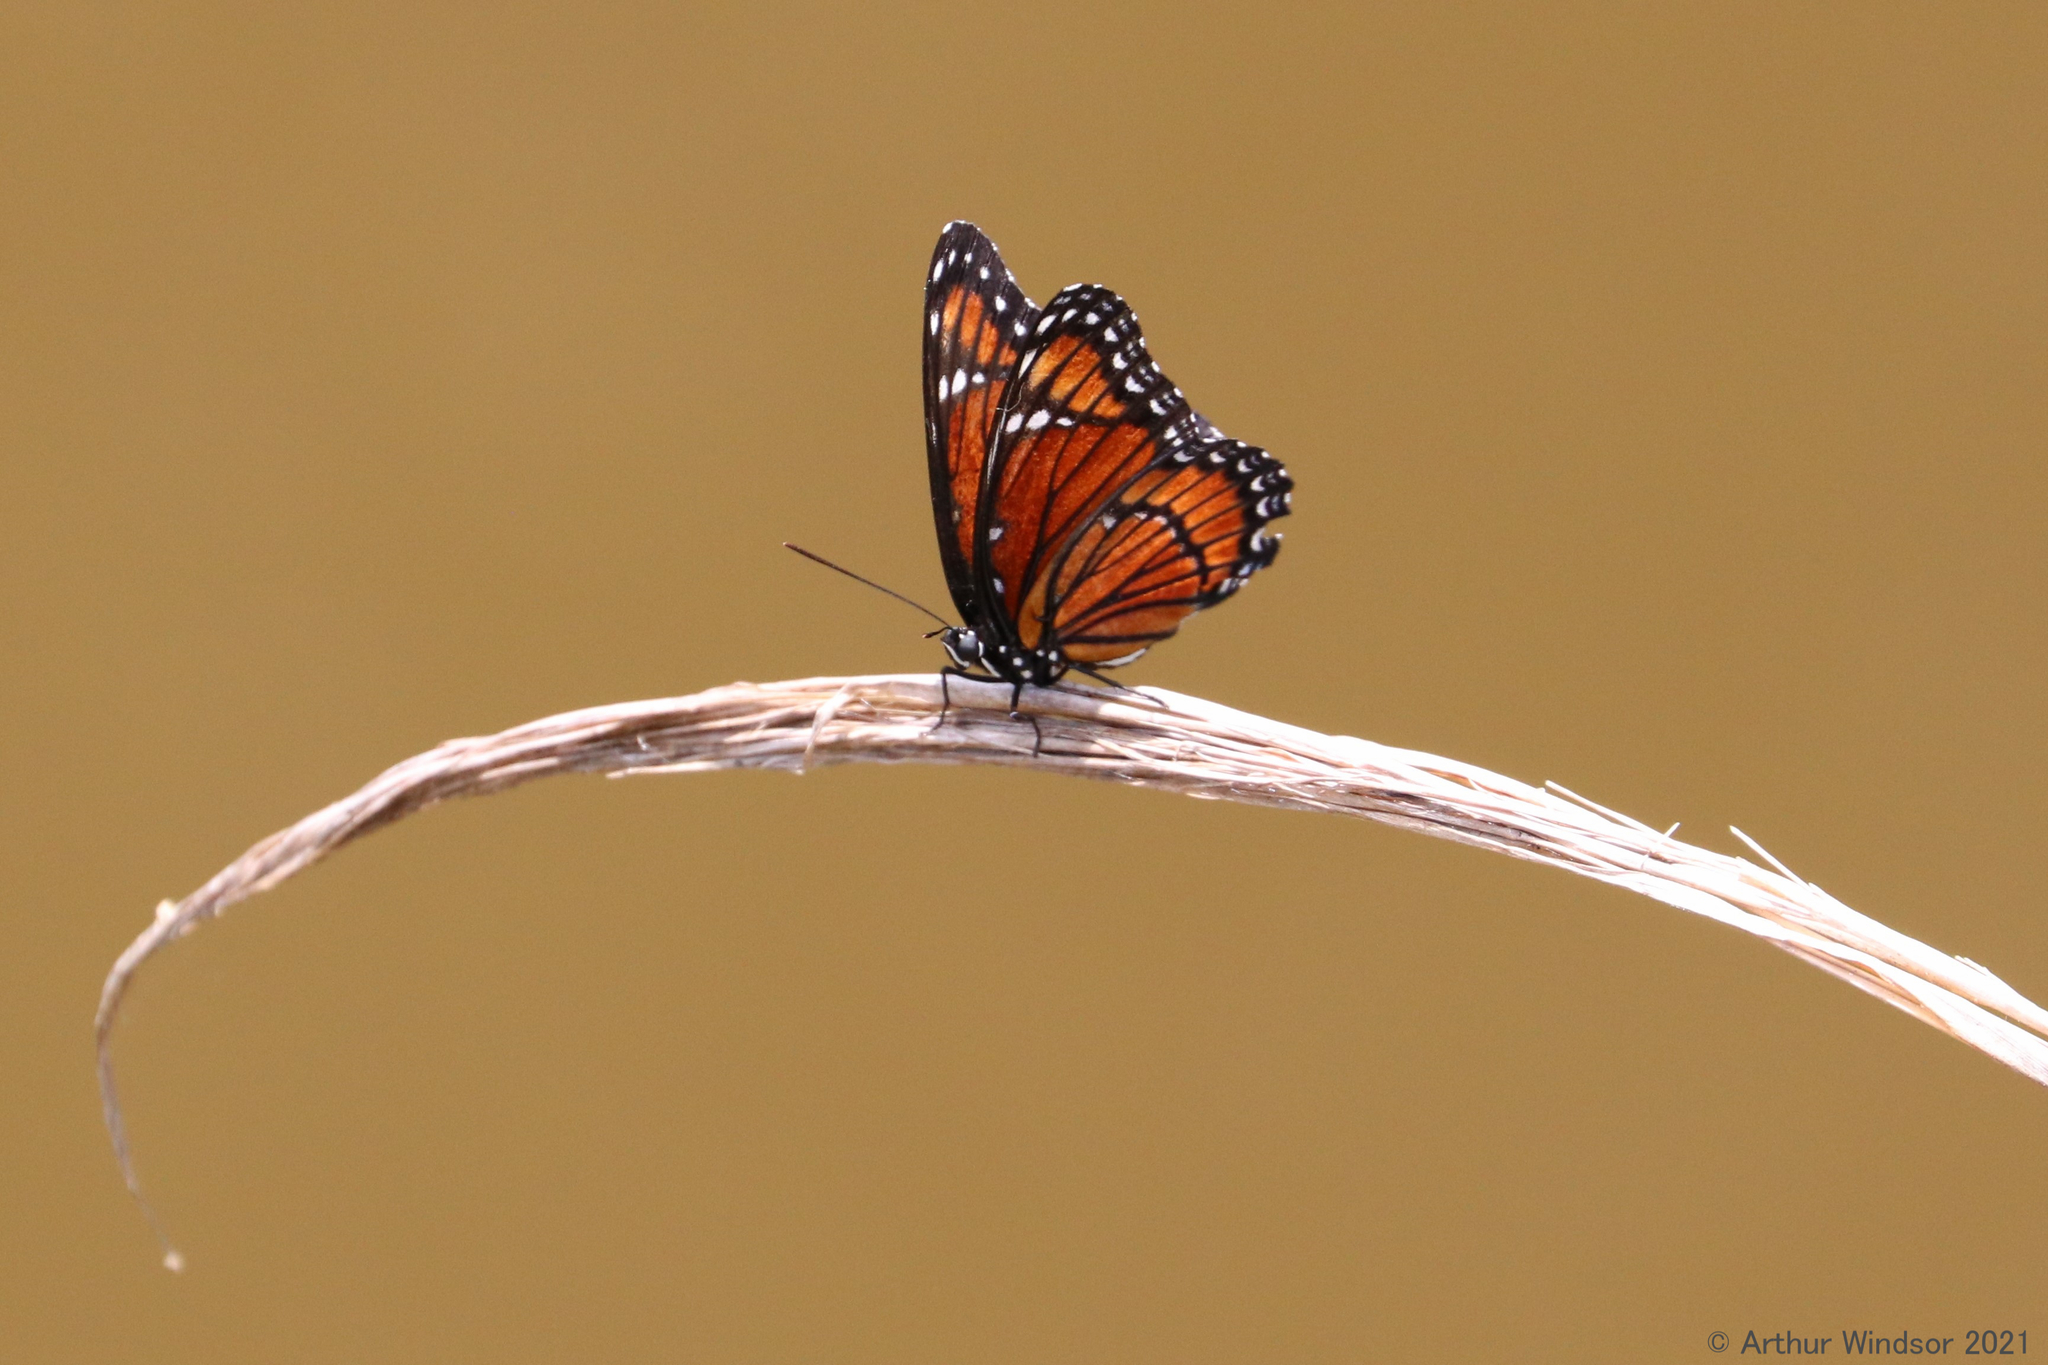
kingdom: Animalia
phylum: Arthropoda
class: Insecta
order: Lepidoptera
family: Nymphalidae
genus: Limenitis
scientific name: Limenitis archippus
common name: Viceroy
